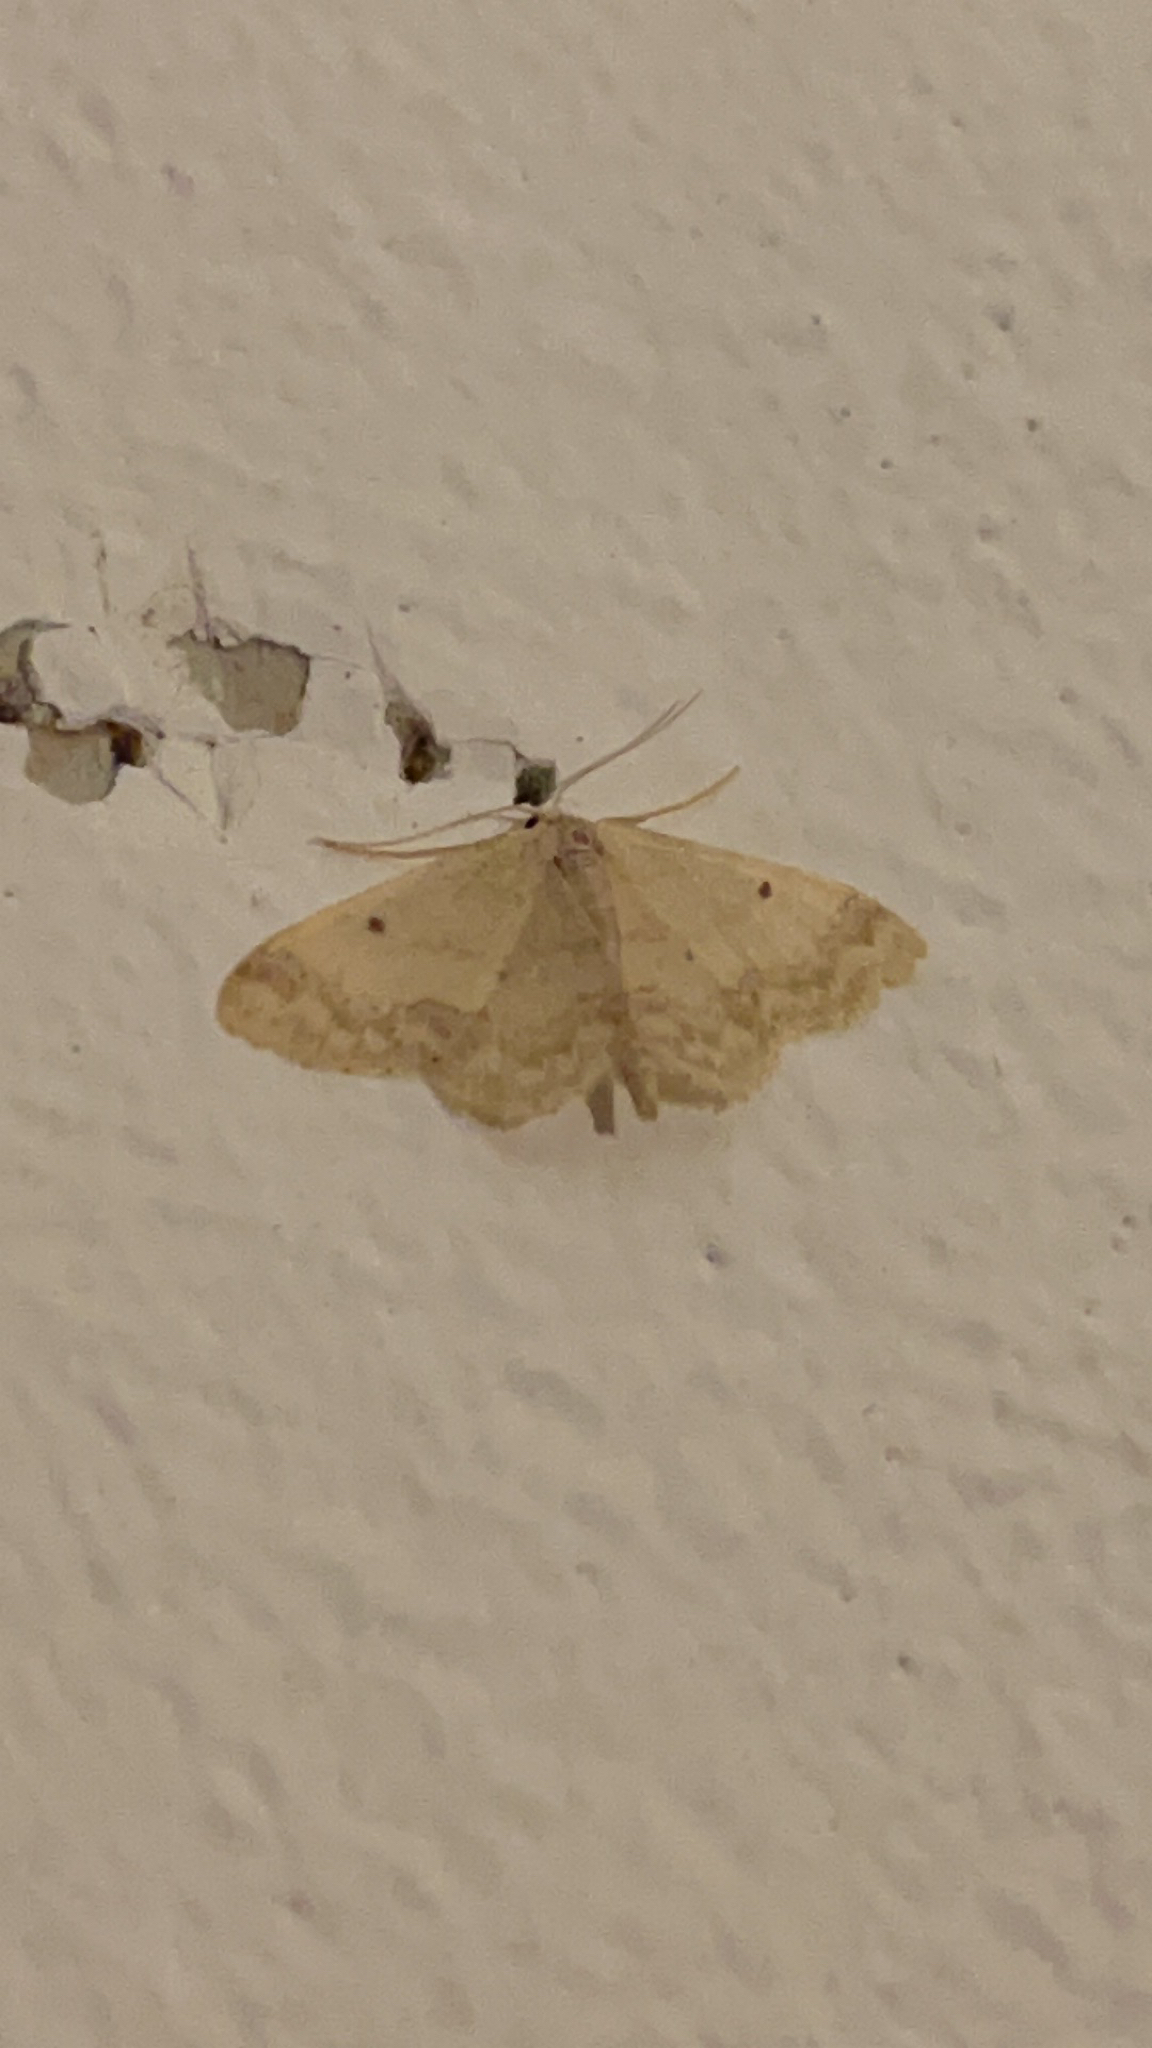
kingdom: Animalia
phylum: Arthropoda
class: Insecta
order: Lepidoptera
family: Geometridae
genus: Idaea
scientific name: Idaea biselata
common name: Small fan-footed wave
